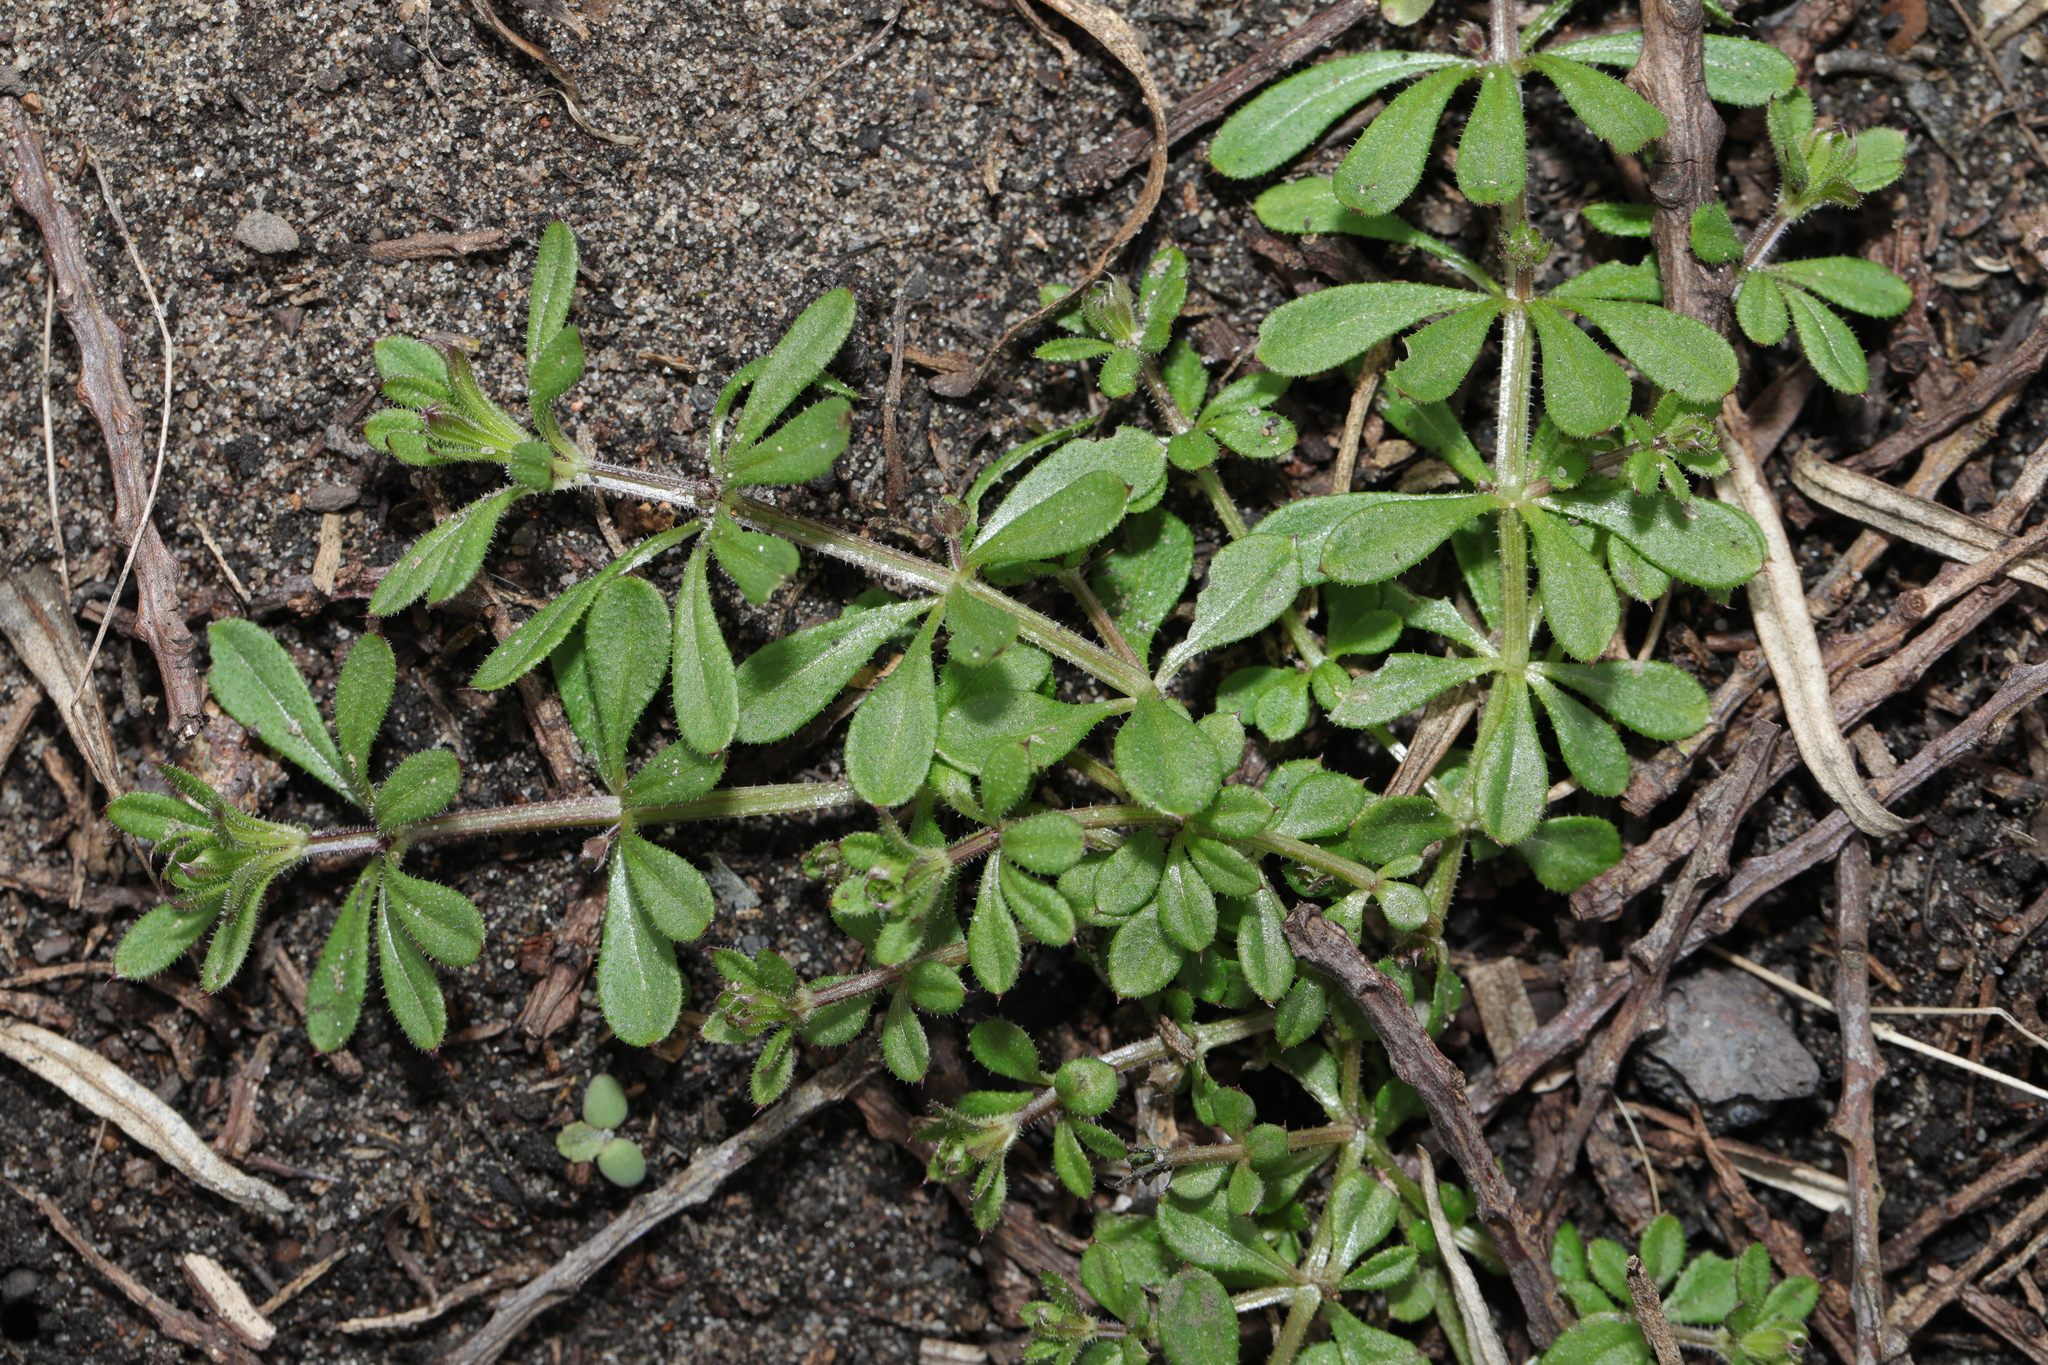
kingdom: Plantae
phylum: Tracheophyta
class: Magnoliopsida
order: Gentianales
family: Rubiaceae
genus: Galium
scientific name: Galium aparine
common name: Cleavers
